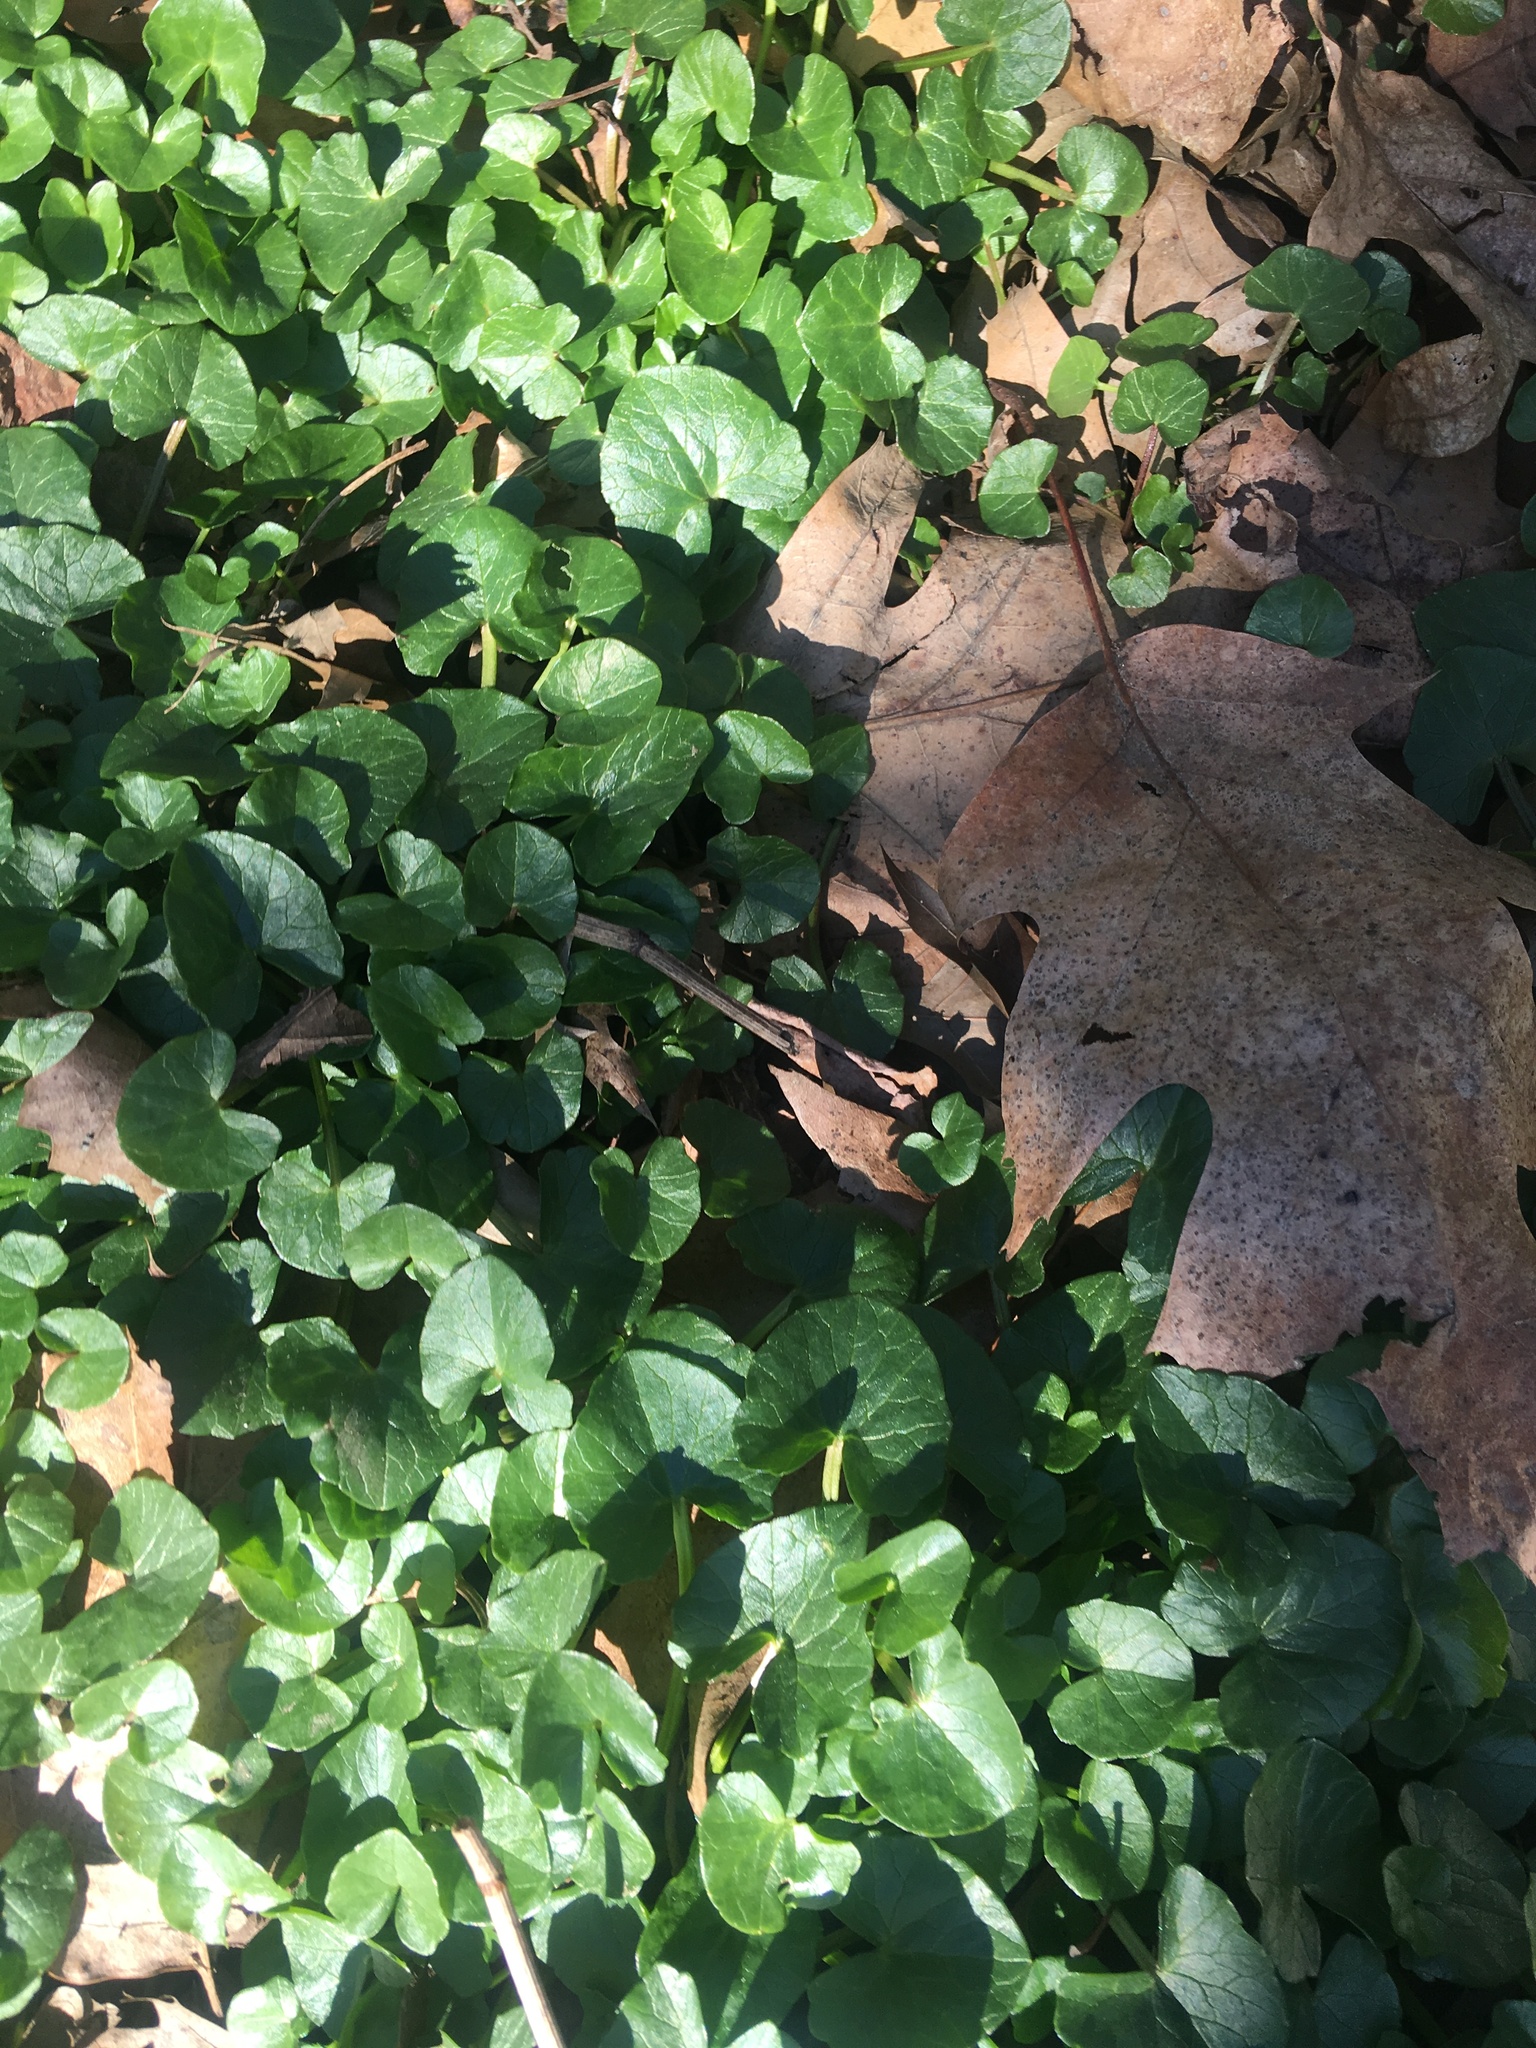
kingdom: Plantae
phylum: Tracheophyta
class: Magnoliopsida
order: Ranunculales
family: Ranunculaceae
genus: Ficaria
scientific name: Ficaria verna
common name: Lesser celandine
